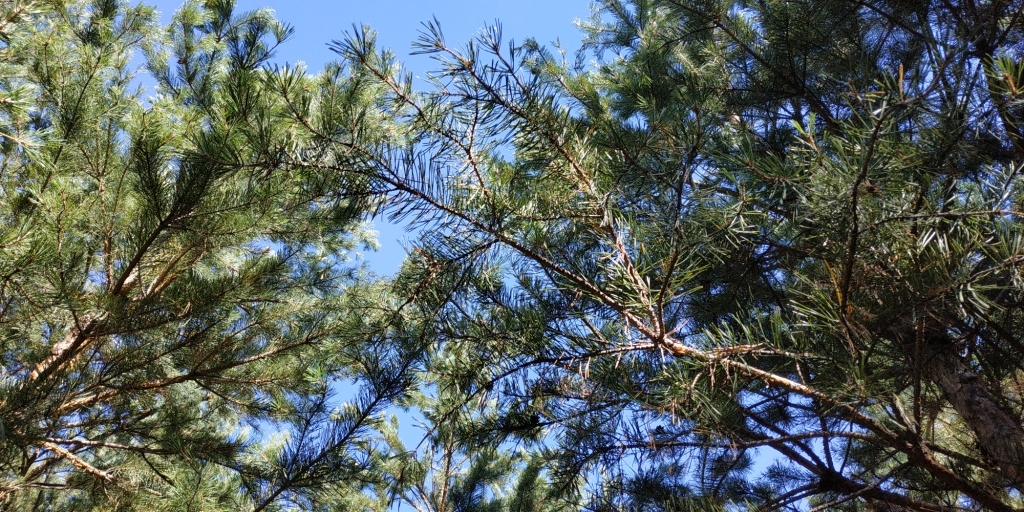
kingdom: Plantae
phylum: Tracheophyta
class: Pinopsida
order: Pinales
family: Pinaceae
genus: Pinus
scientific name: Pinus sylvestris
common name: Scots pine
